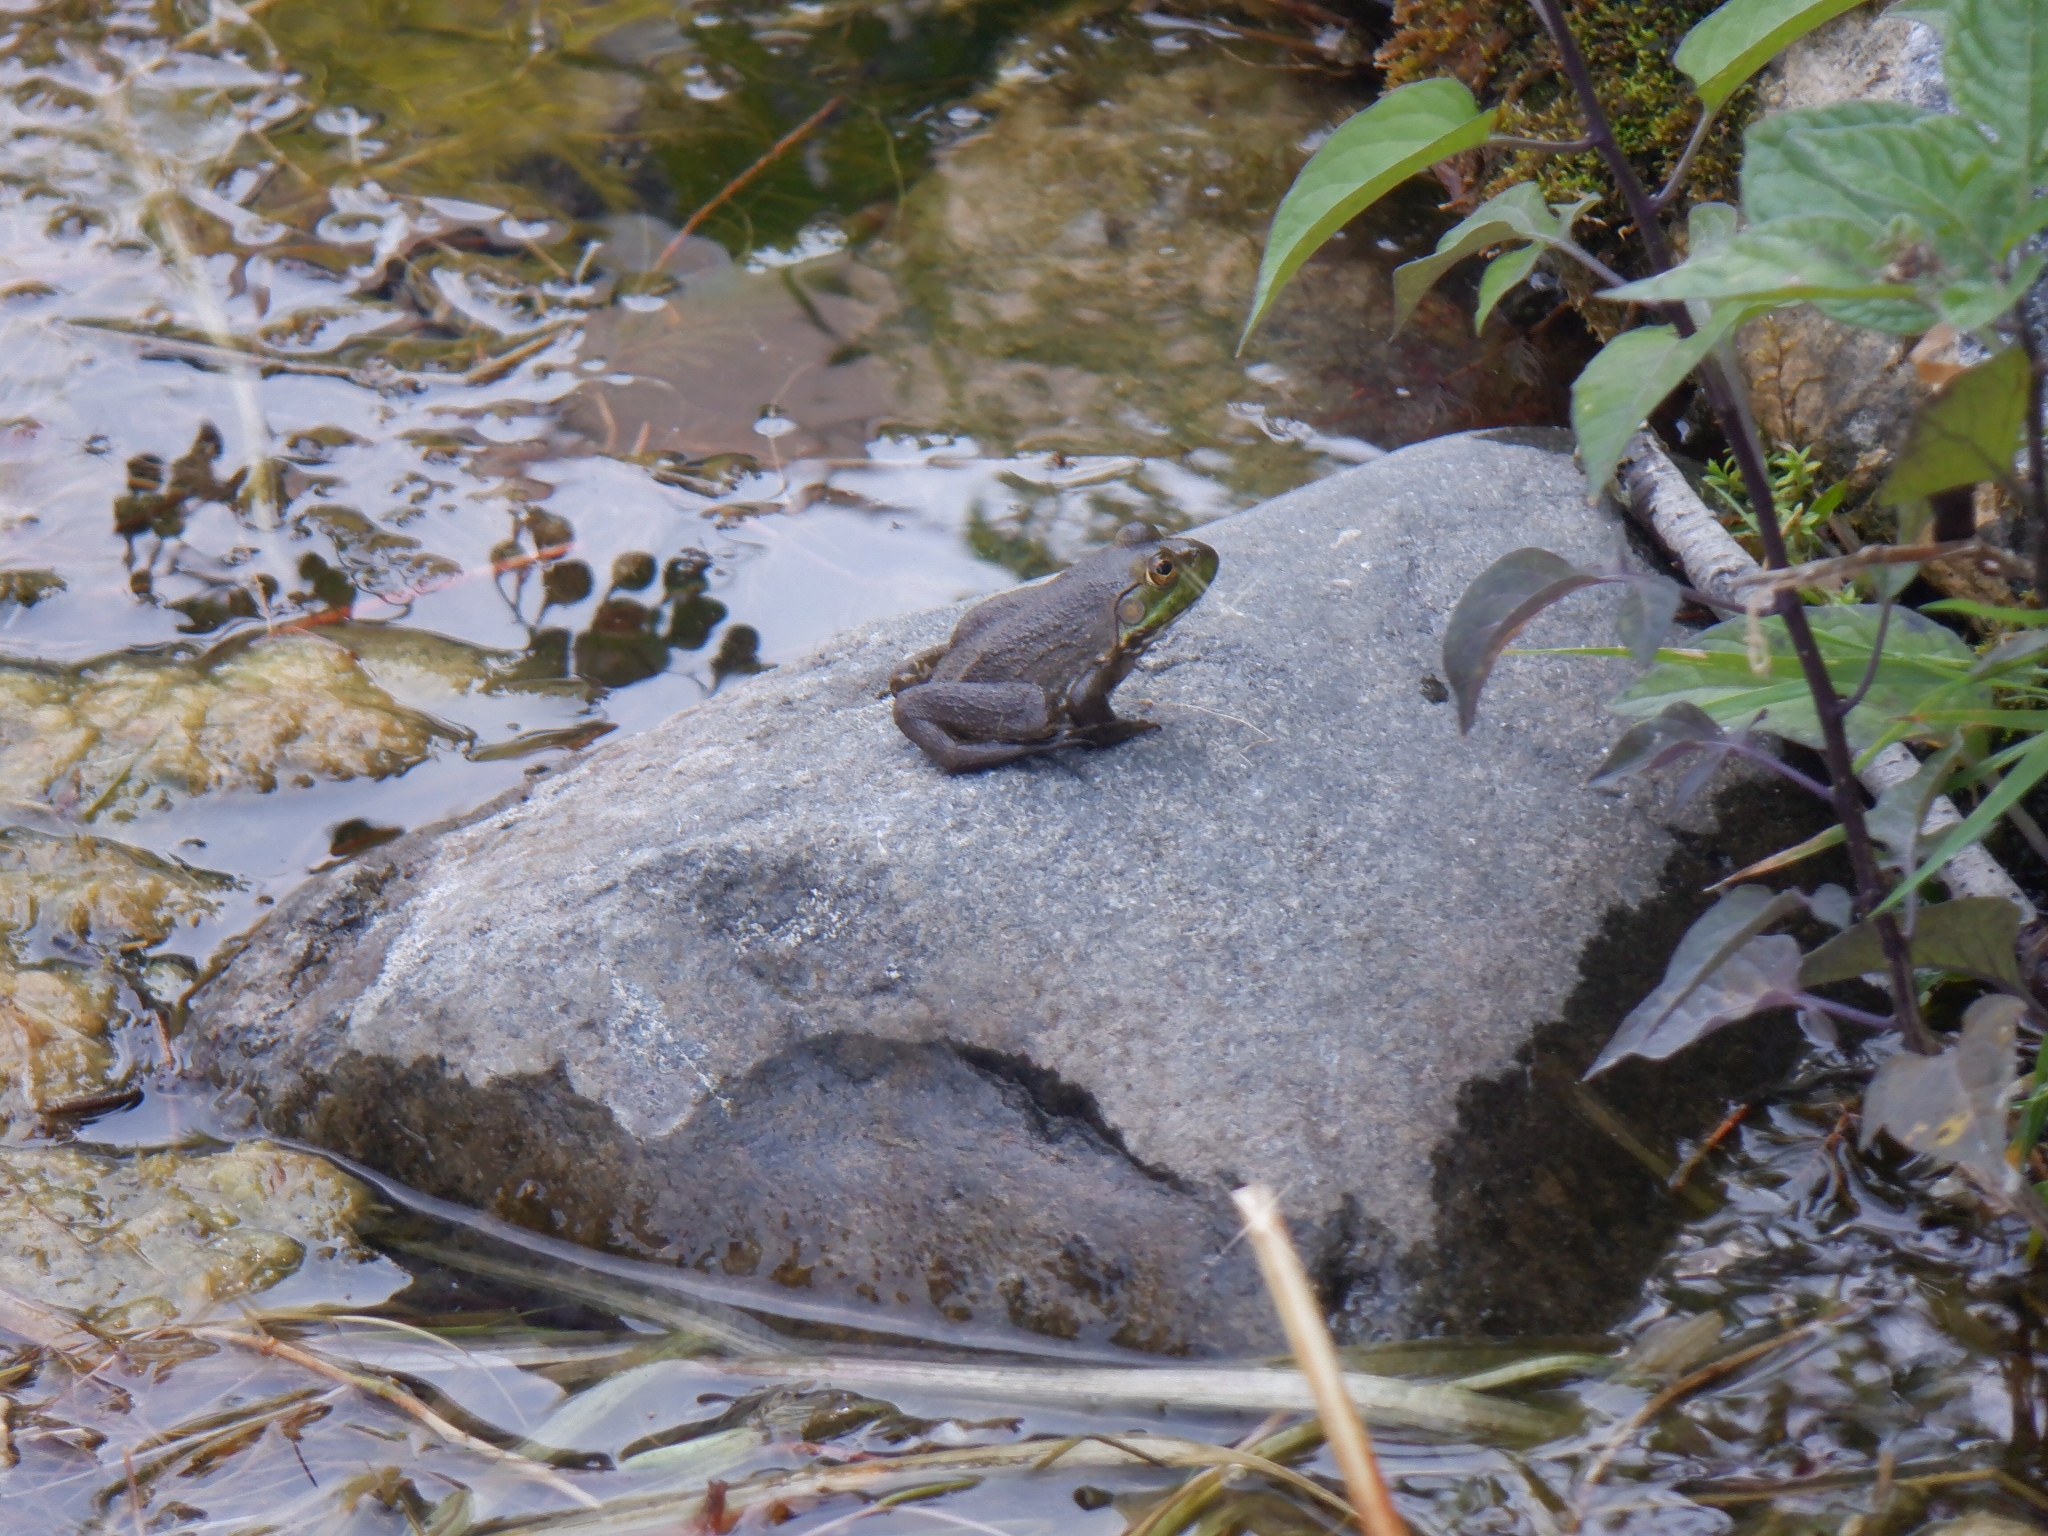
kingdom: Animalia
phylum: Chordata
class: Amphibia
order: Anura
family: Ranidae
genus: Lithobates
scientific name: Lithobates catesbeianus
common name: American bullfrog
